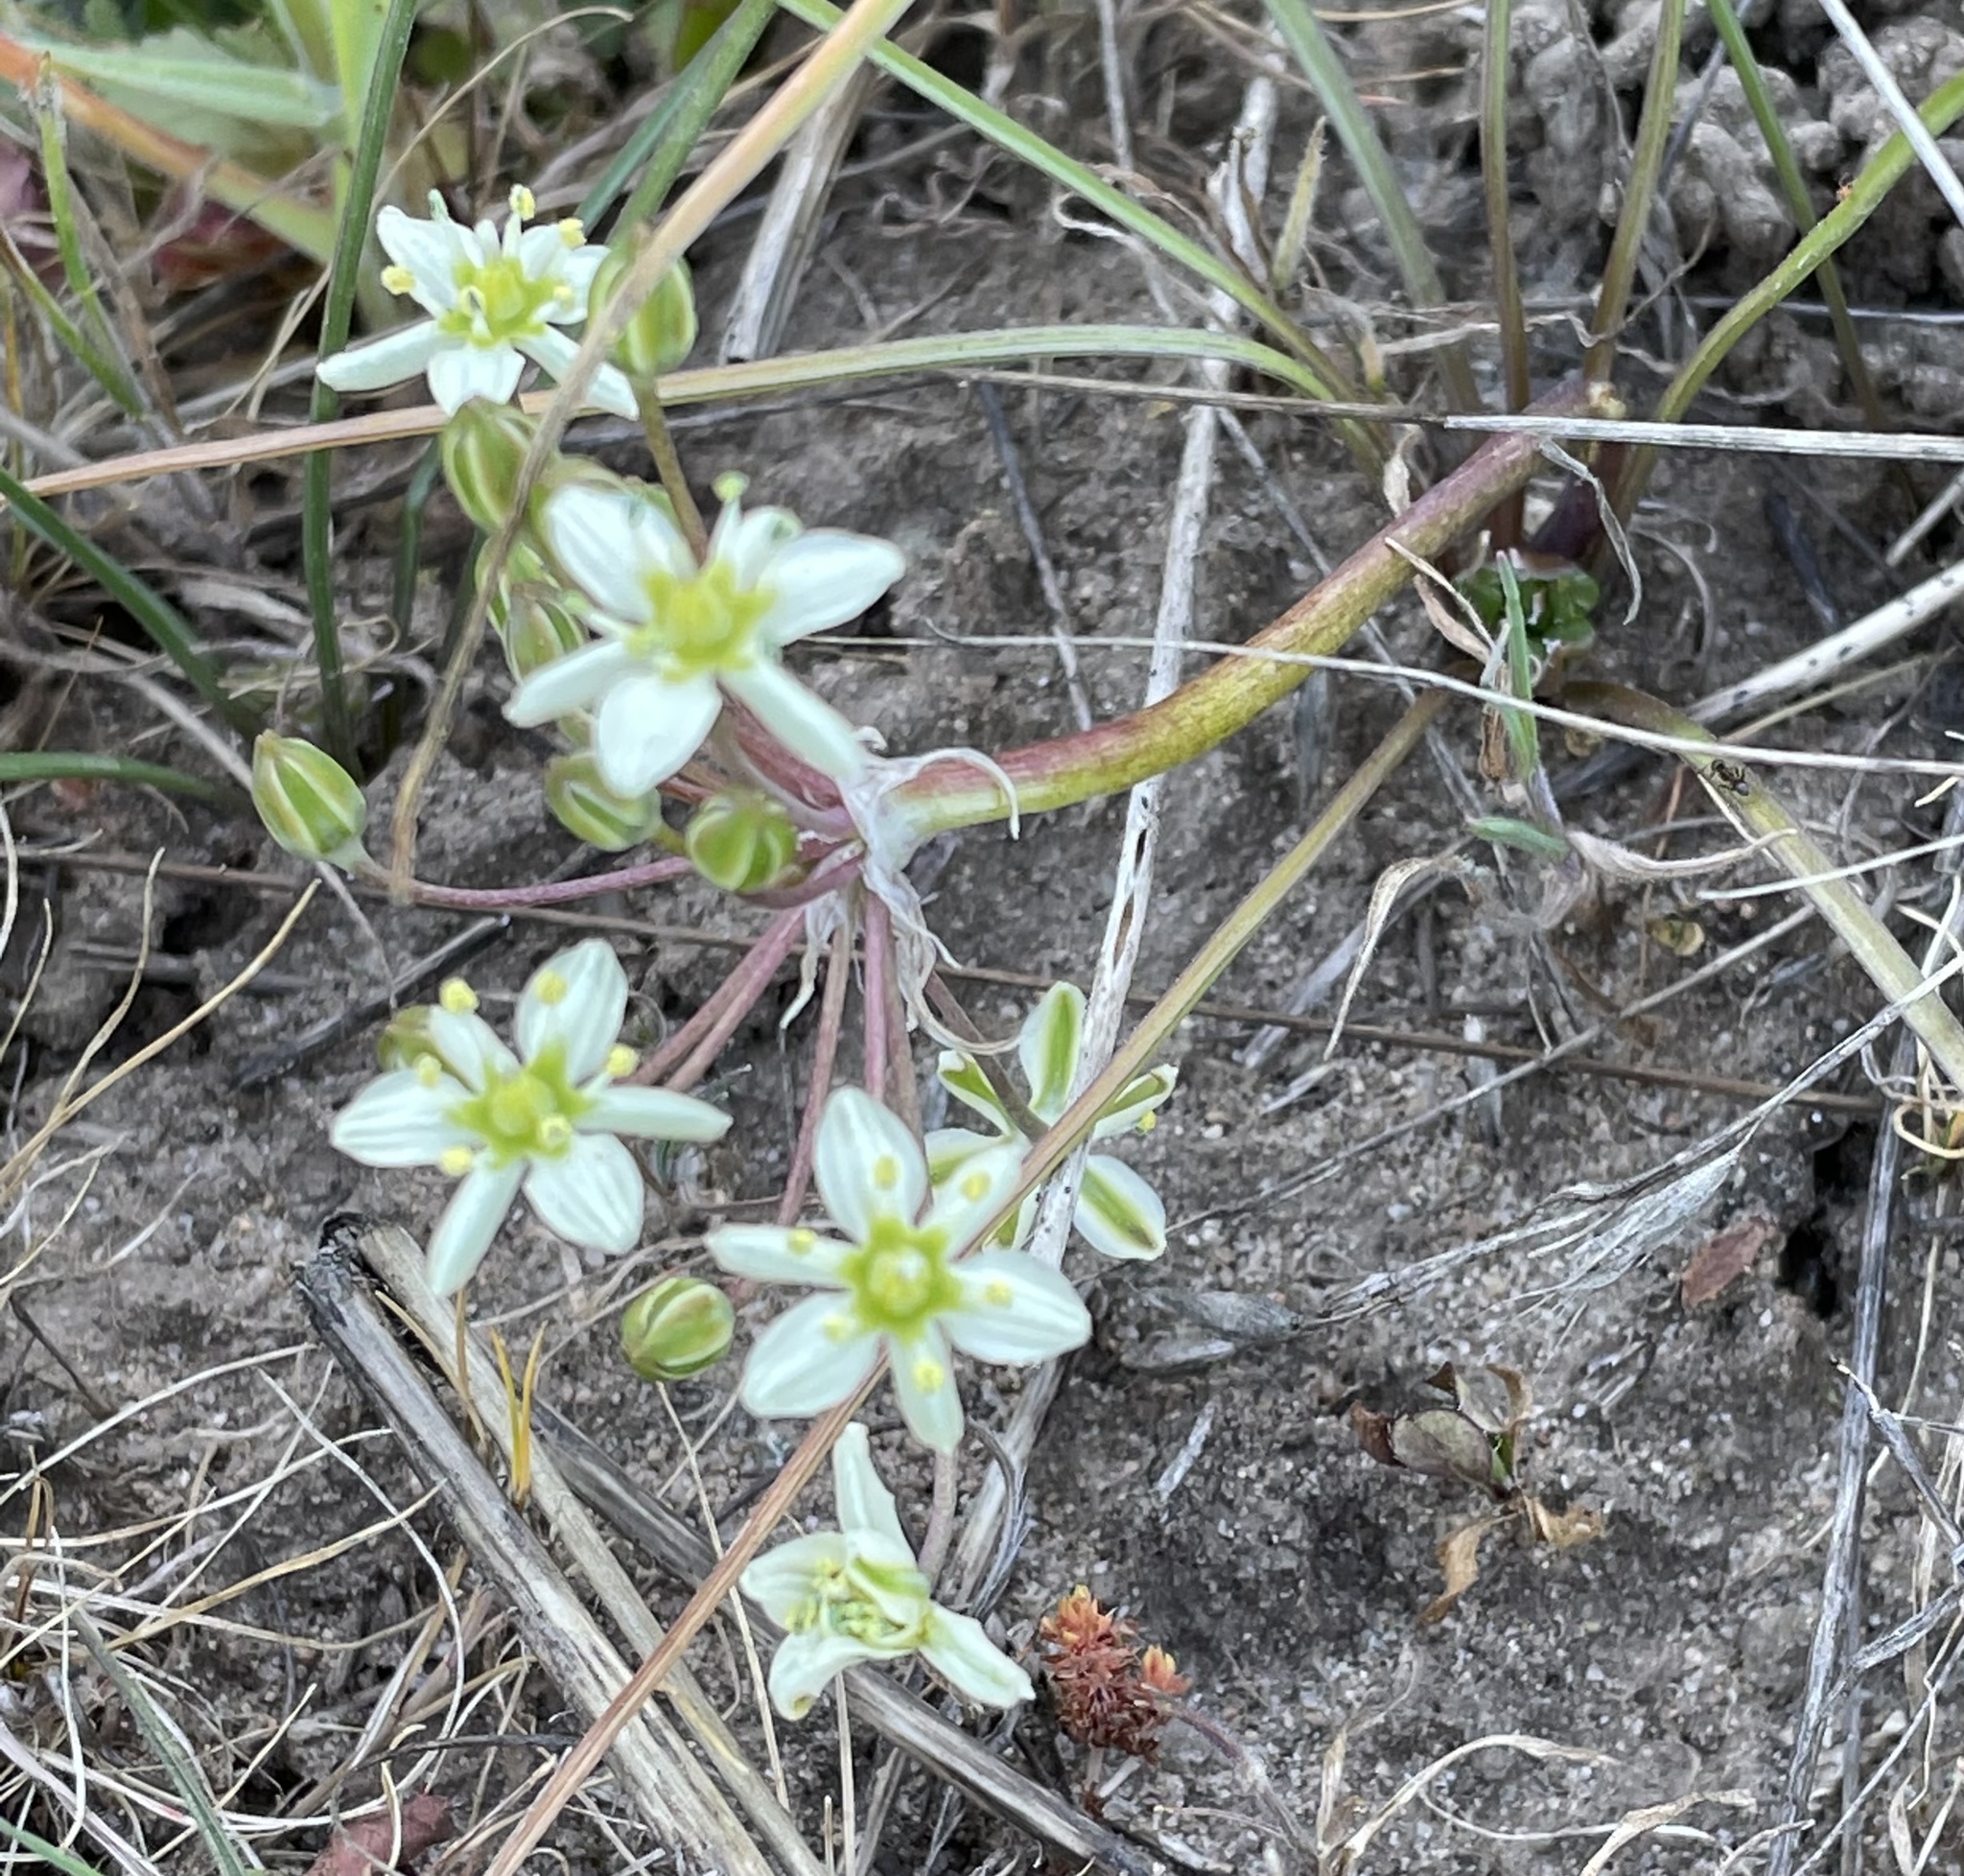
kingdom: Plantae
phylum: Tracheophyta
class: Liliopsida
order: Asparagales
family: Asparagaceae
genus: Muilla
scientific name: Muilla maritima
